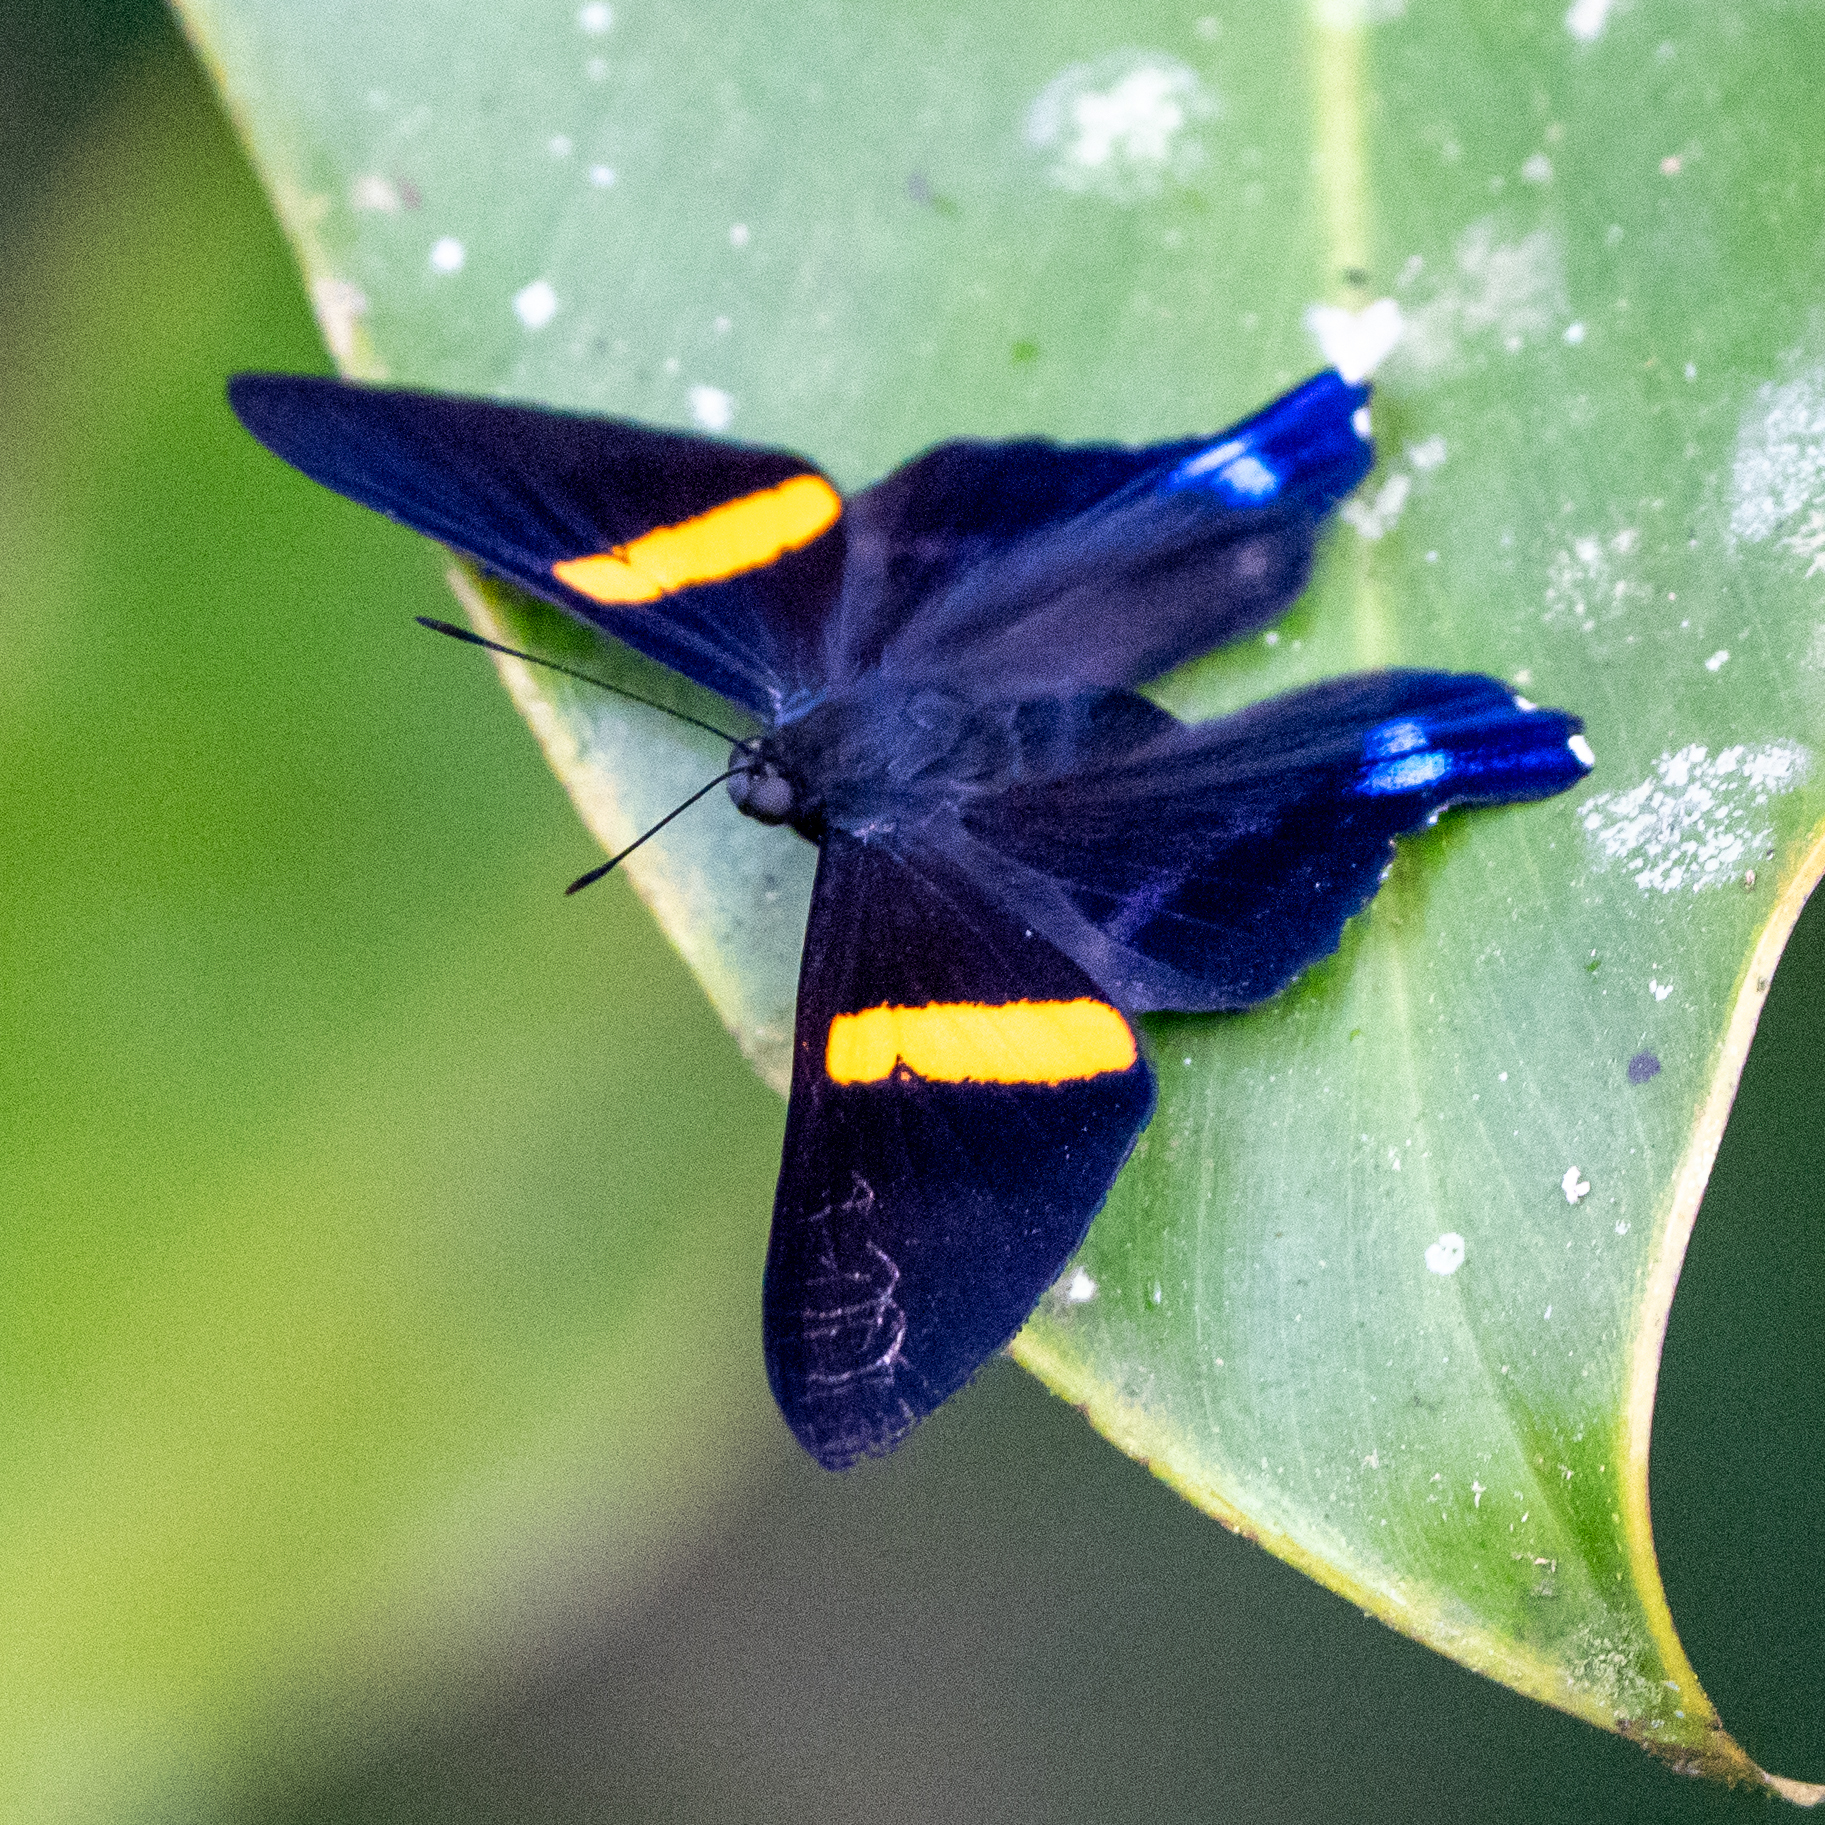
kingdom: Animalia
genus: Ancyluris
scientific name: Ancyluris inca
